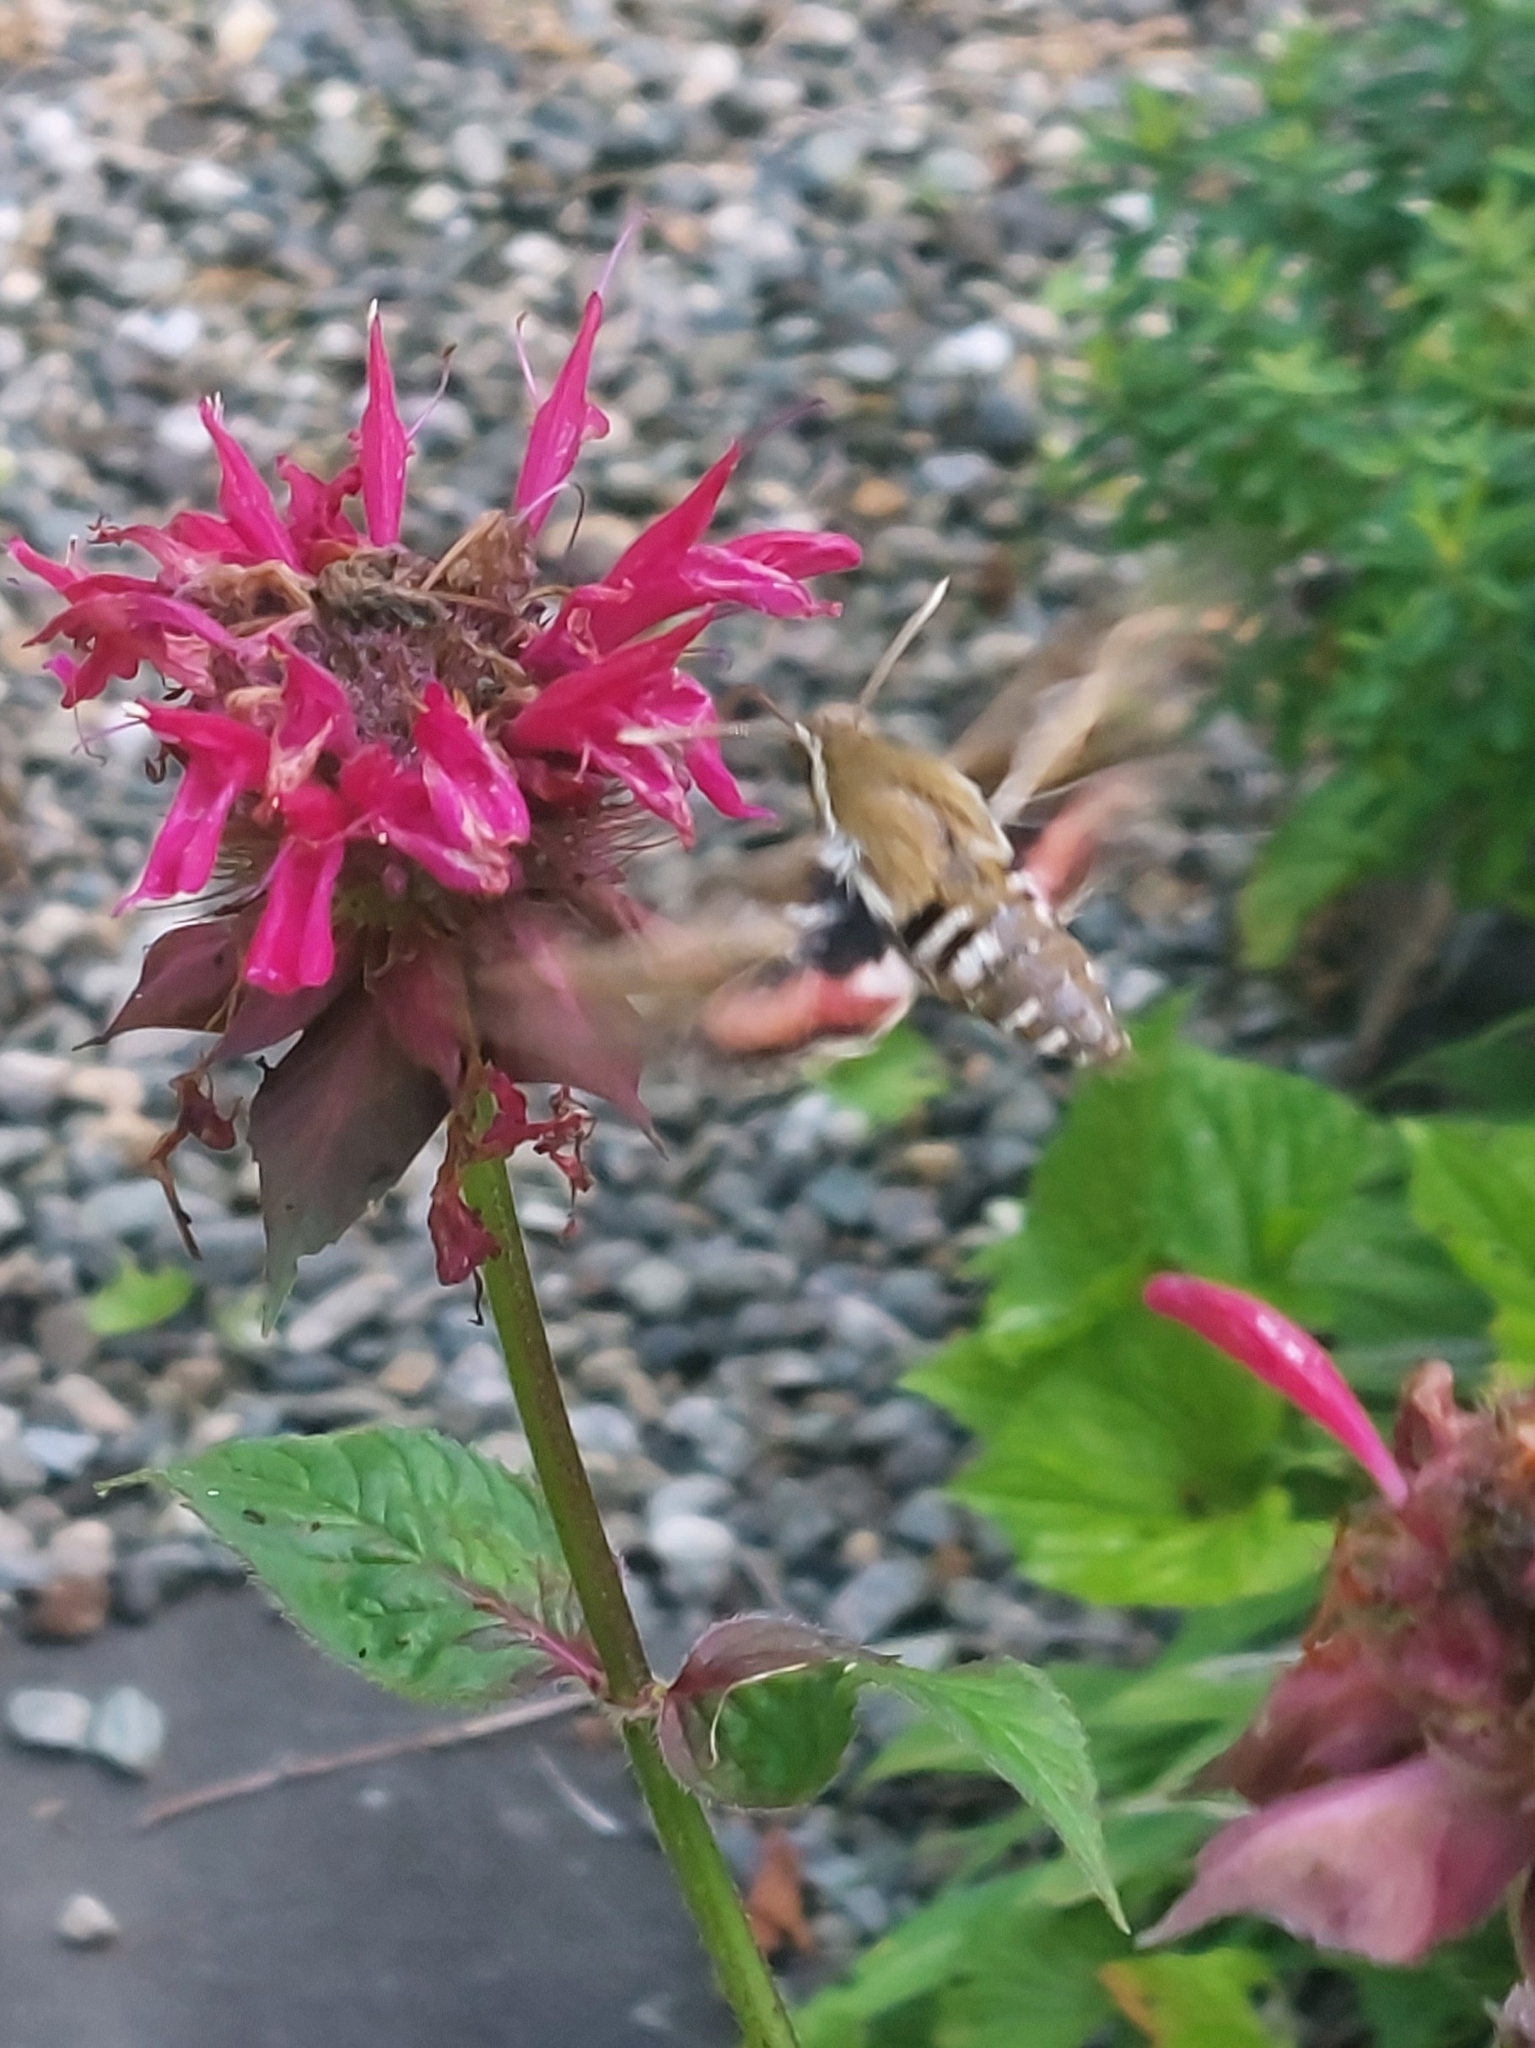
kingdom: Animalia
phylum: Arthropoda
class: Insecta
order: Lepidoptera
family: Sphingidae
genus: Hyles
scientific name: Hyles gallii
